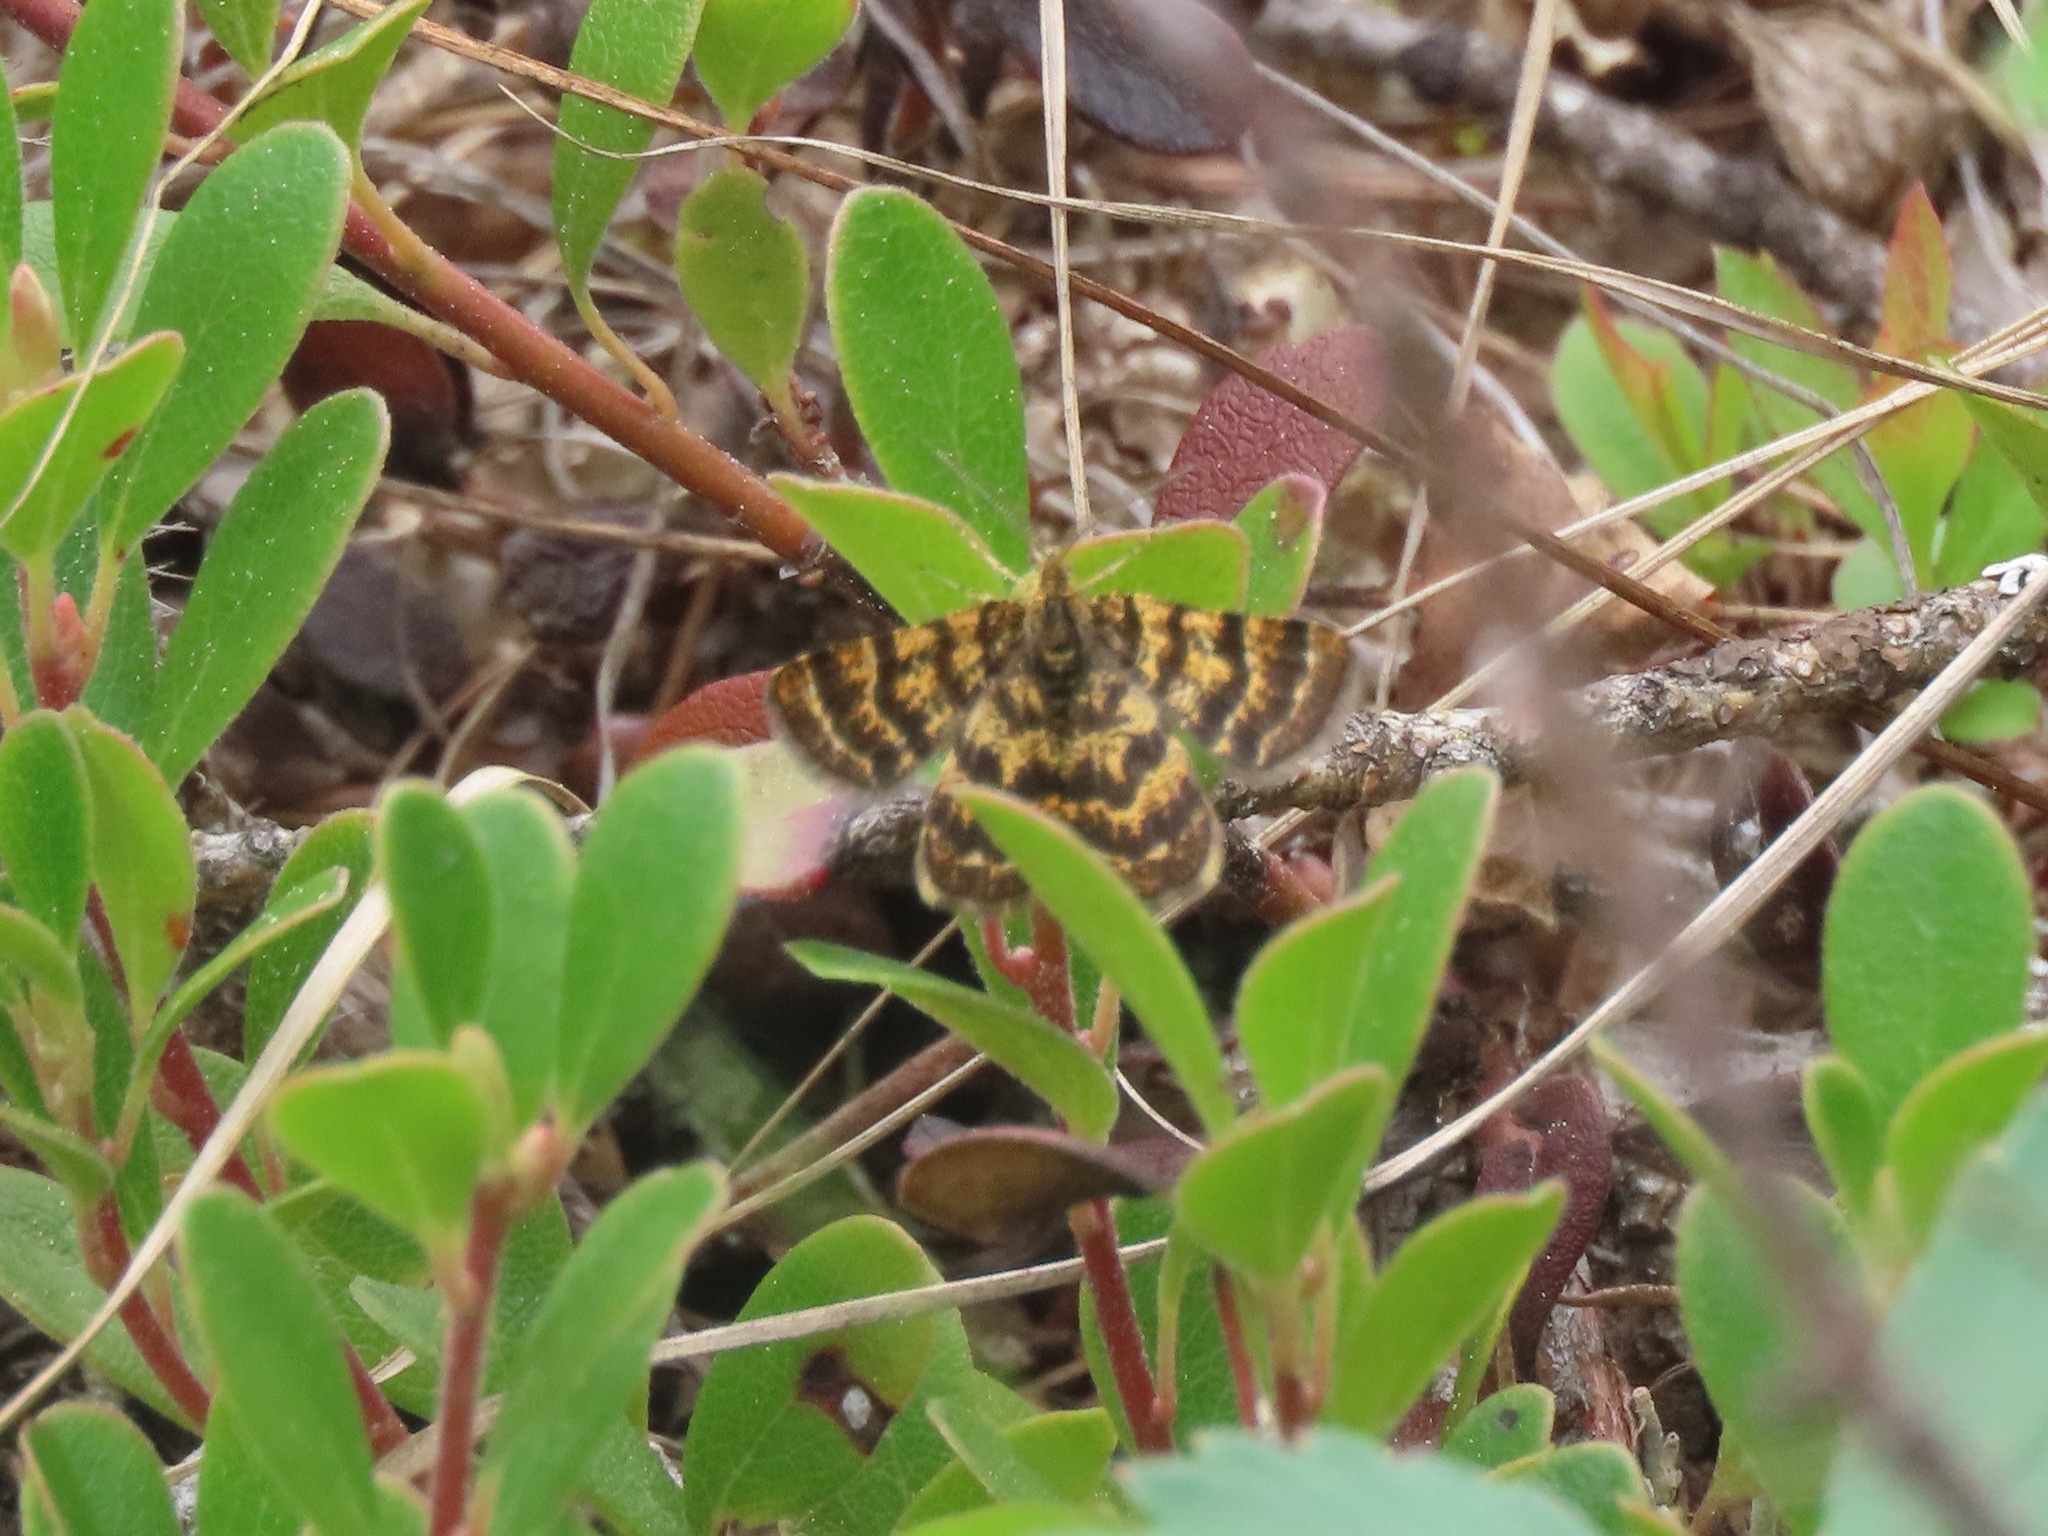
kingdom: Animalia
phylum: Arthropoda
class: Insecta
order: Lepidoptera
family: Geometridae
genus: Macaria
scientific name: Macaria truncataria
